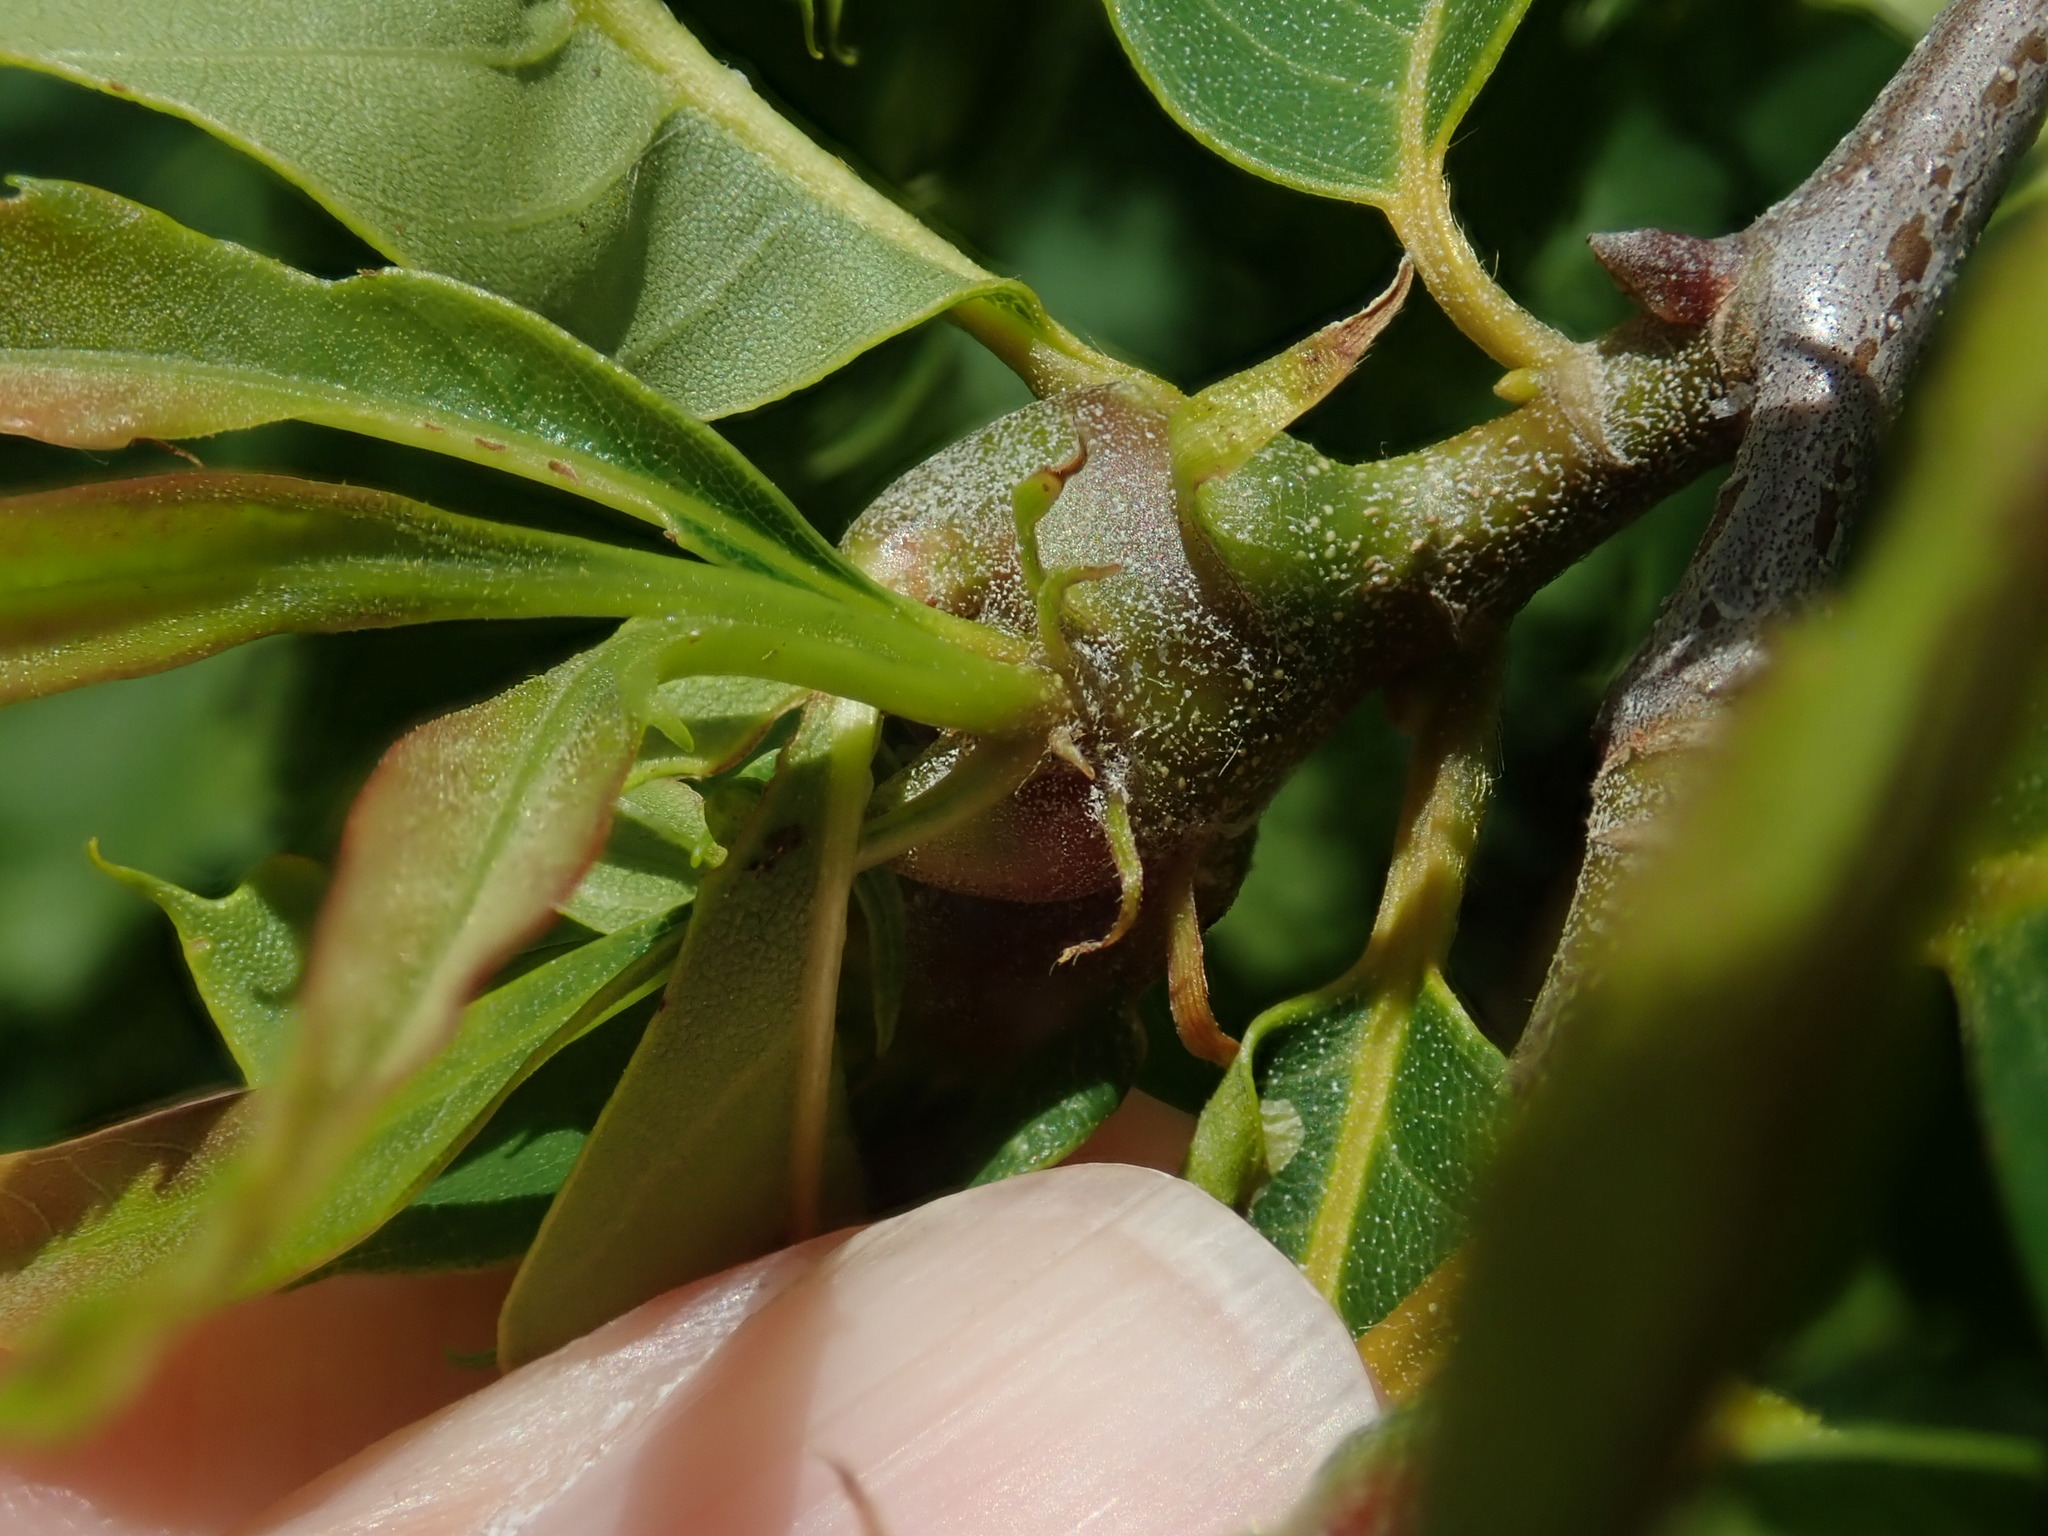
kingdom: Animalia
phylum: Arthropoda
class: Insecta
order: Hymenoptera
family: Cynipidae
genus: Dryocosmus
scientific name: Dryocosmus kuriphilus
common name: Asian chestnut gall wasp
